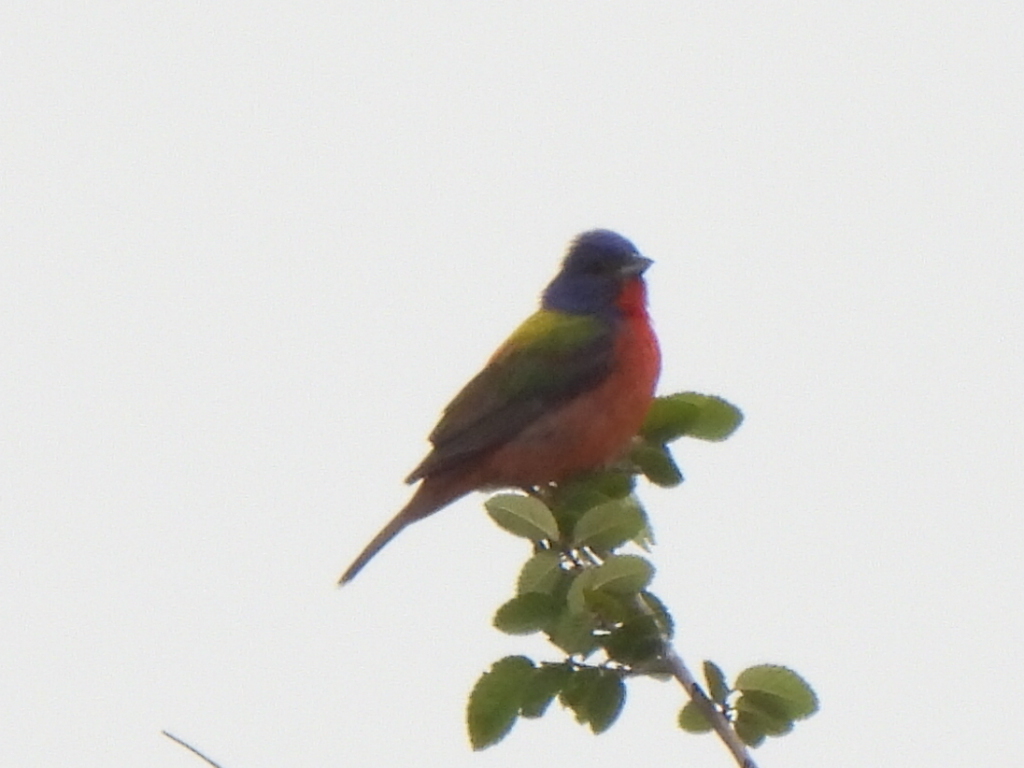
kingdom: Animalia
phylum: Chordata
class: Aves
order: Passeriformes
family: Cardinalidae
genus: Passerina
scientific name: Passerina ciris
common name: Painted bunting
